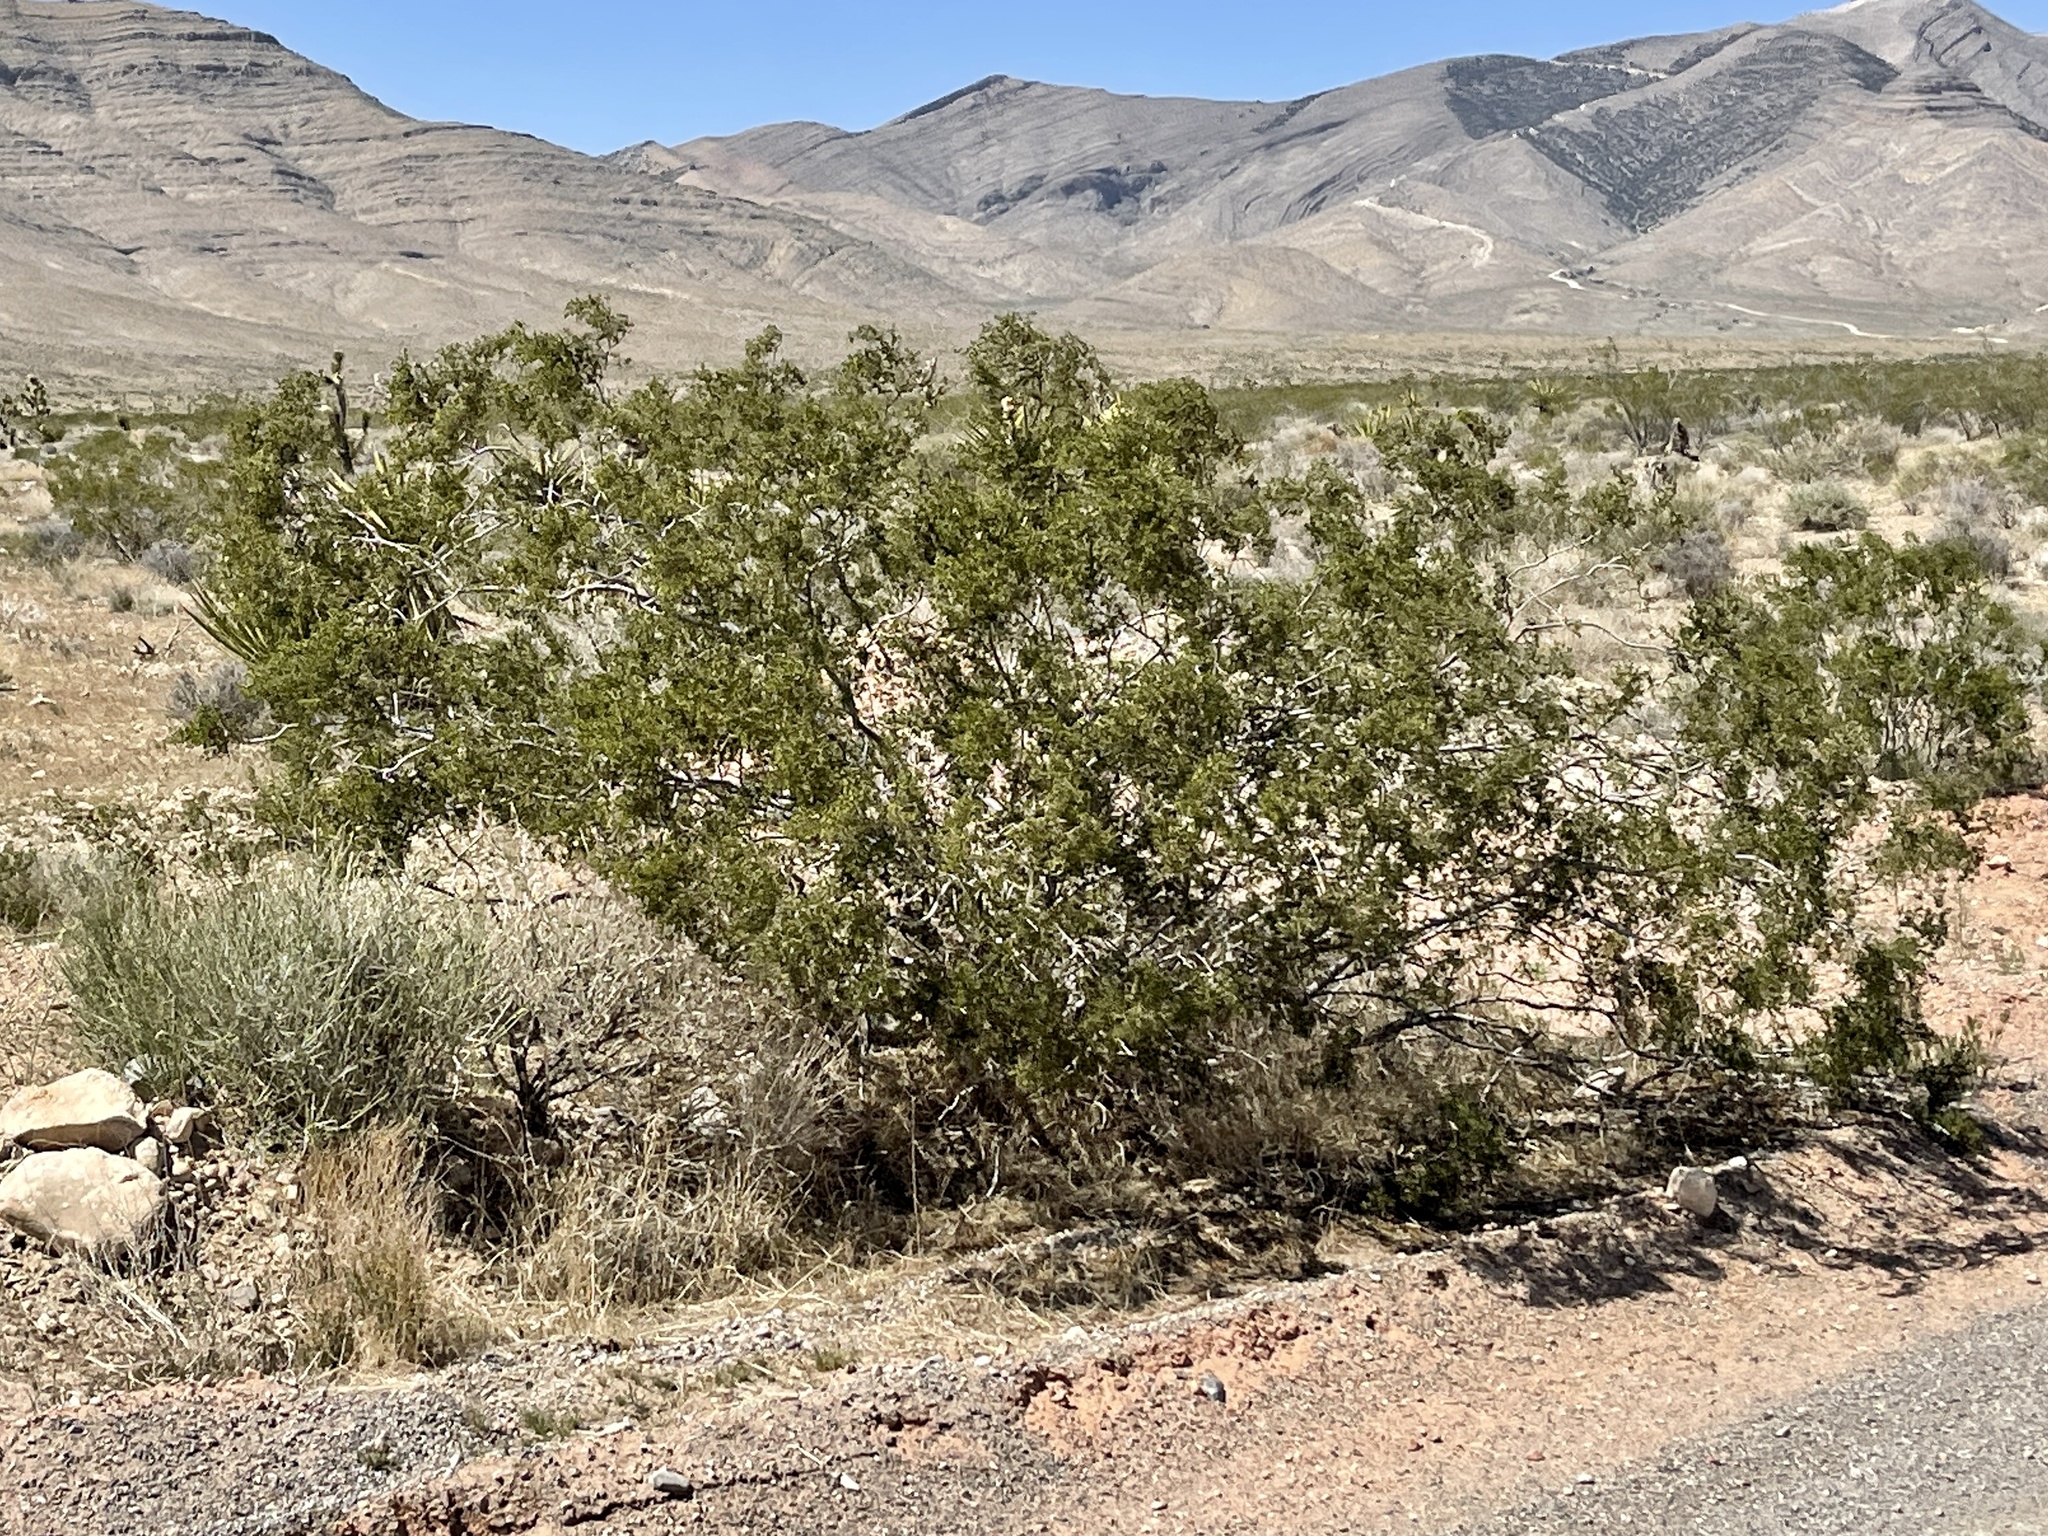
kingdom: Plantae
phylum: Tracheophyta
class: Magnoliopsida
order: Zygophyllales
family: Zygophyllaceae
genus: Larrea
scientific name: Larrea tridentata
